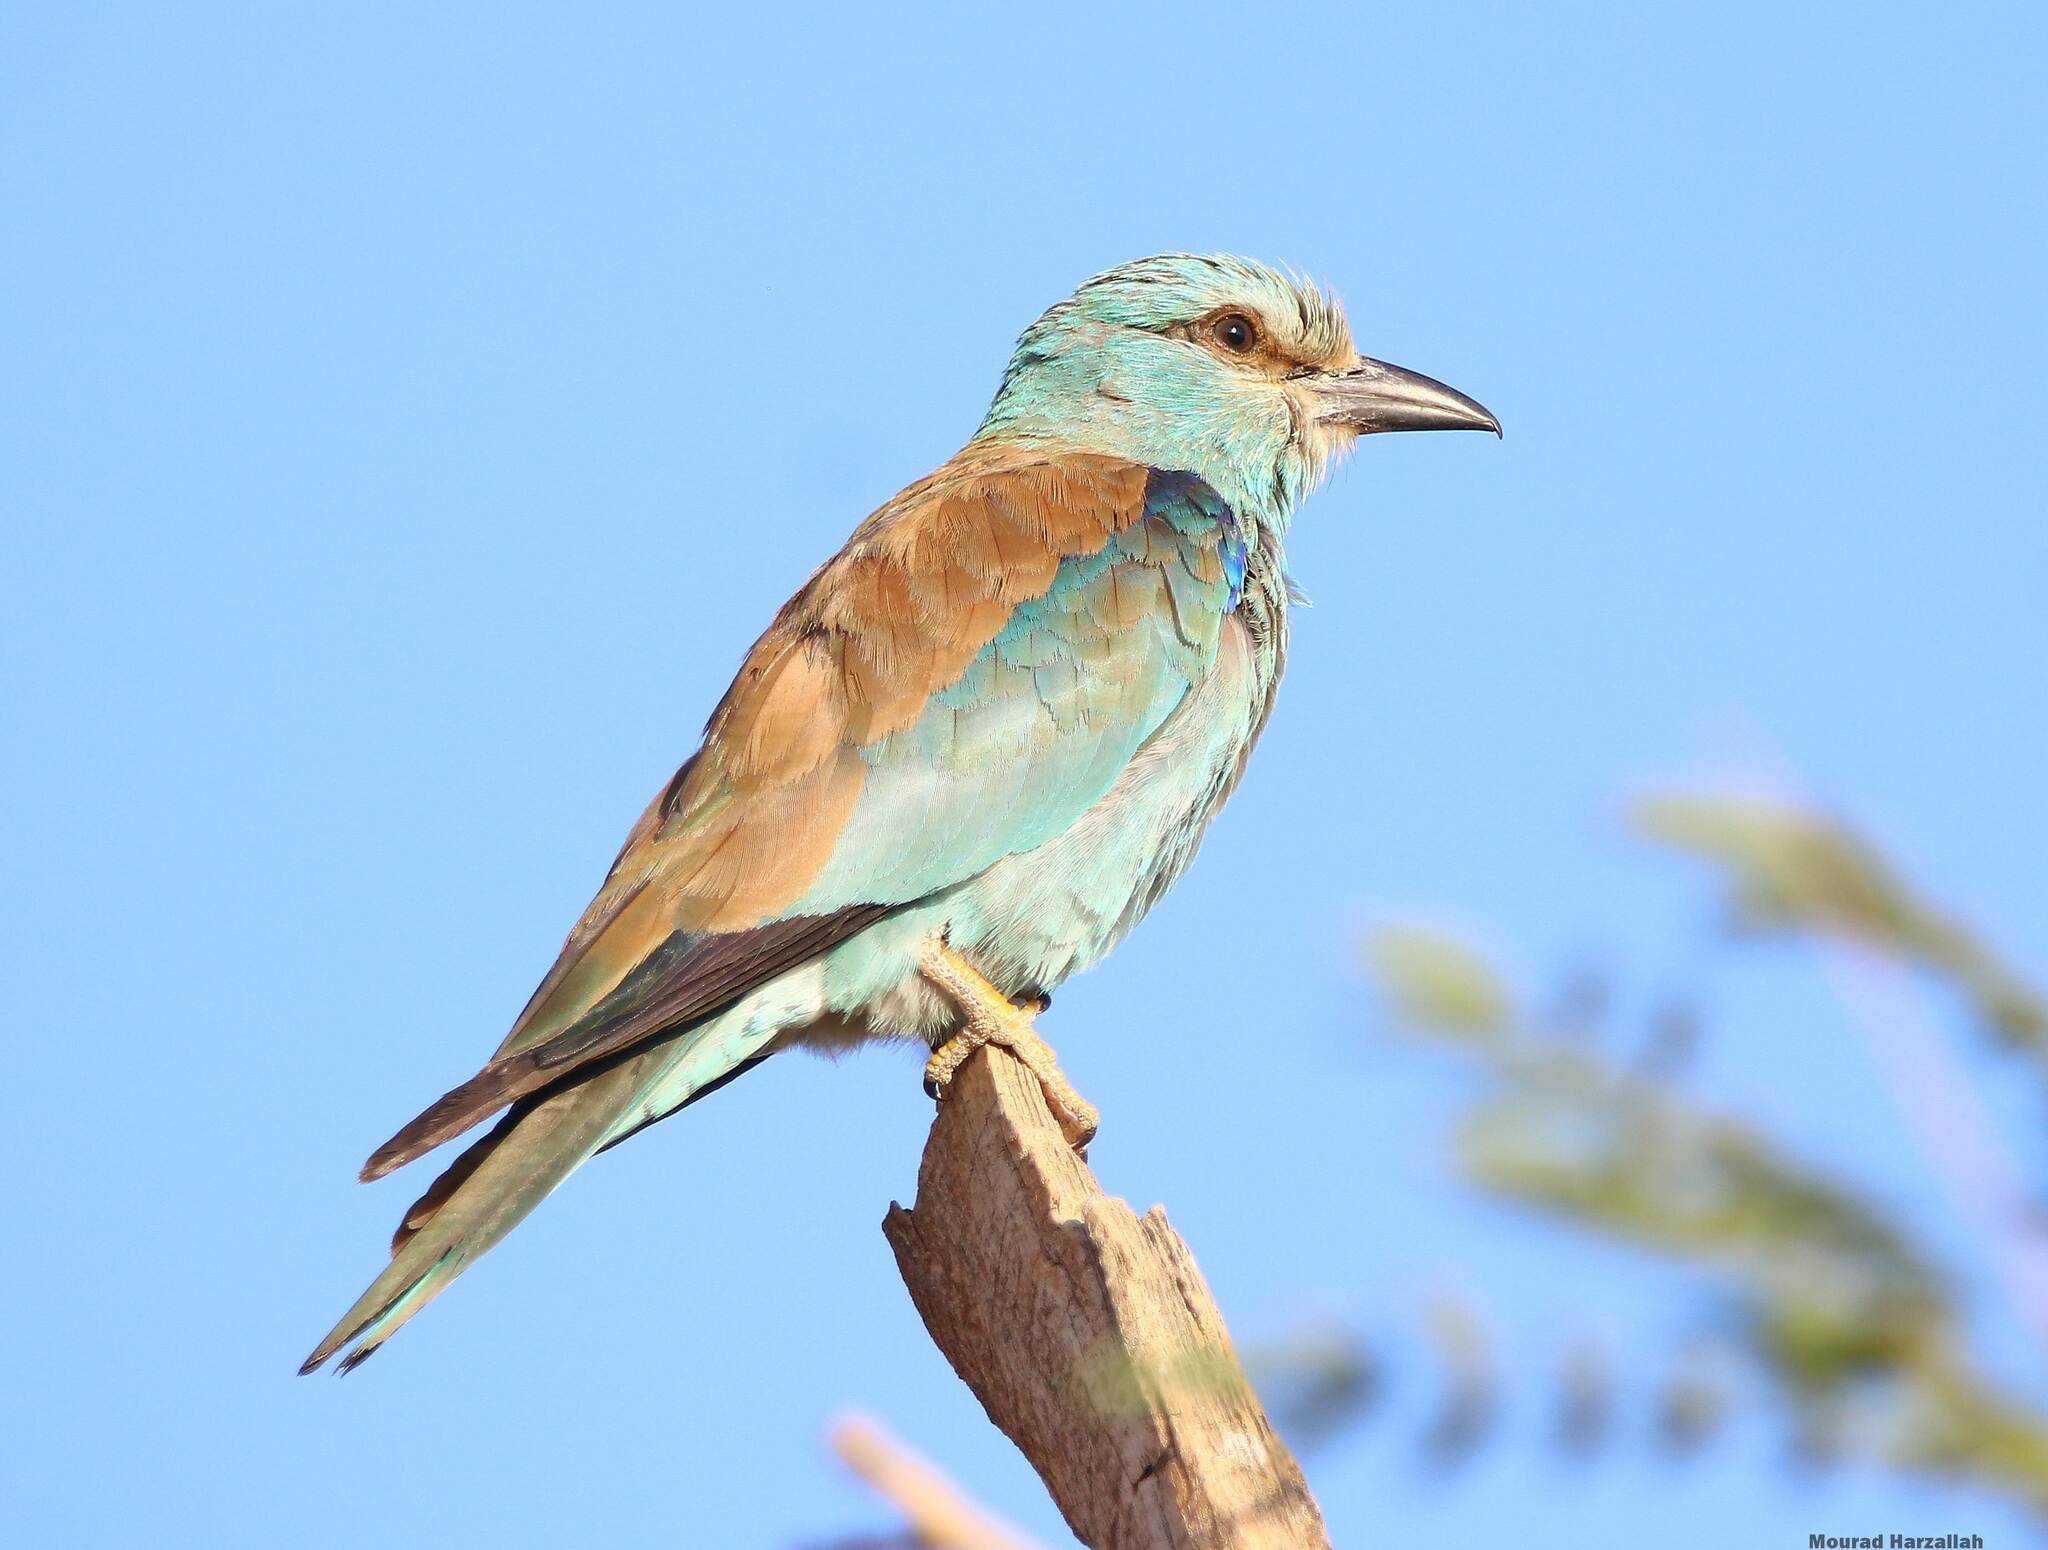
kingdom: Animalia
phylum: Chordata
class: Aves
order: Coraciiformes
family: Coraciidae
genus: Coracias
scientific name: Coracias garrulus
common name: European roller
